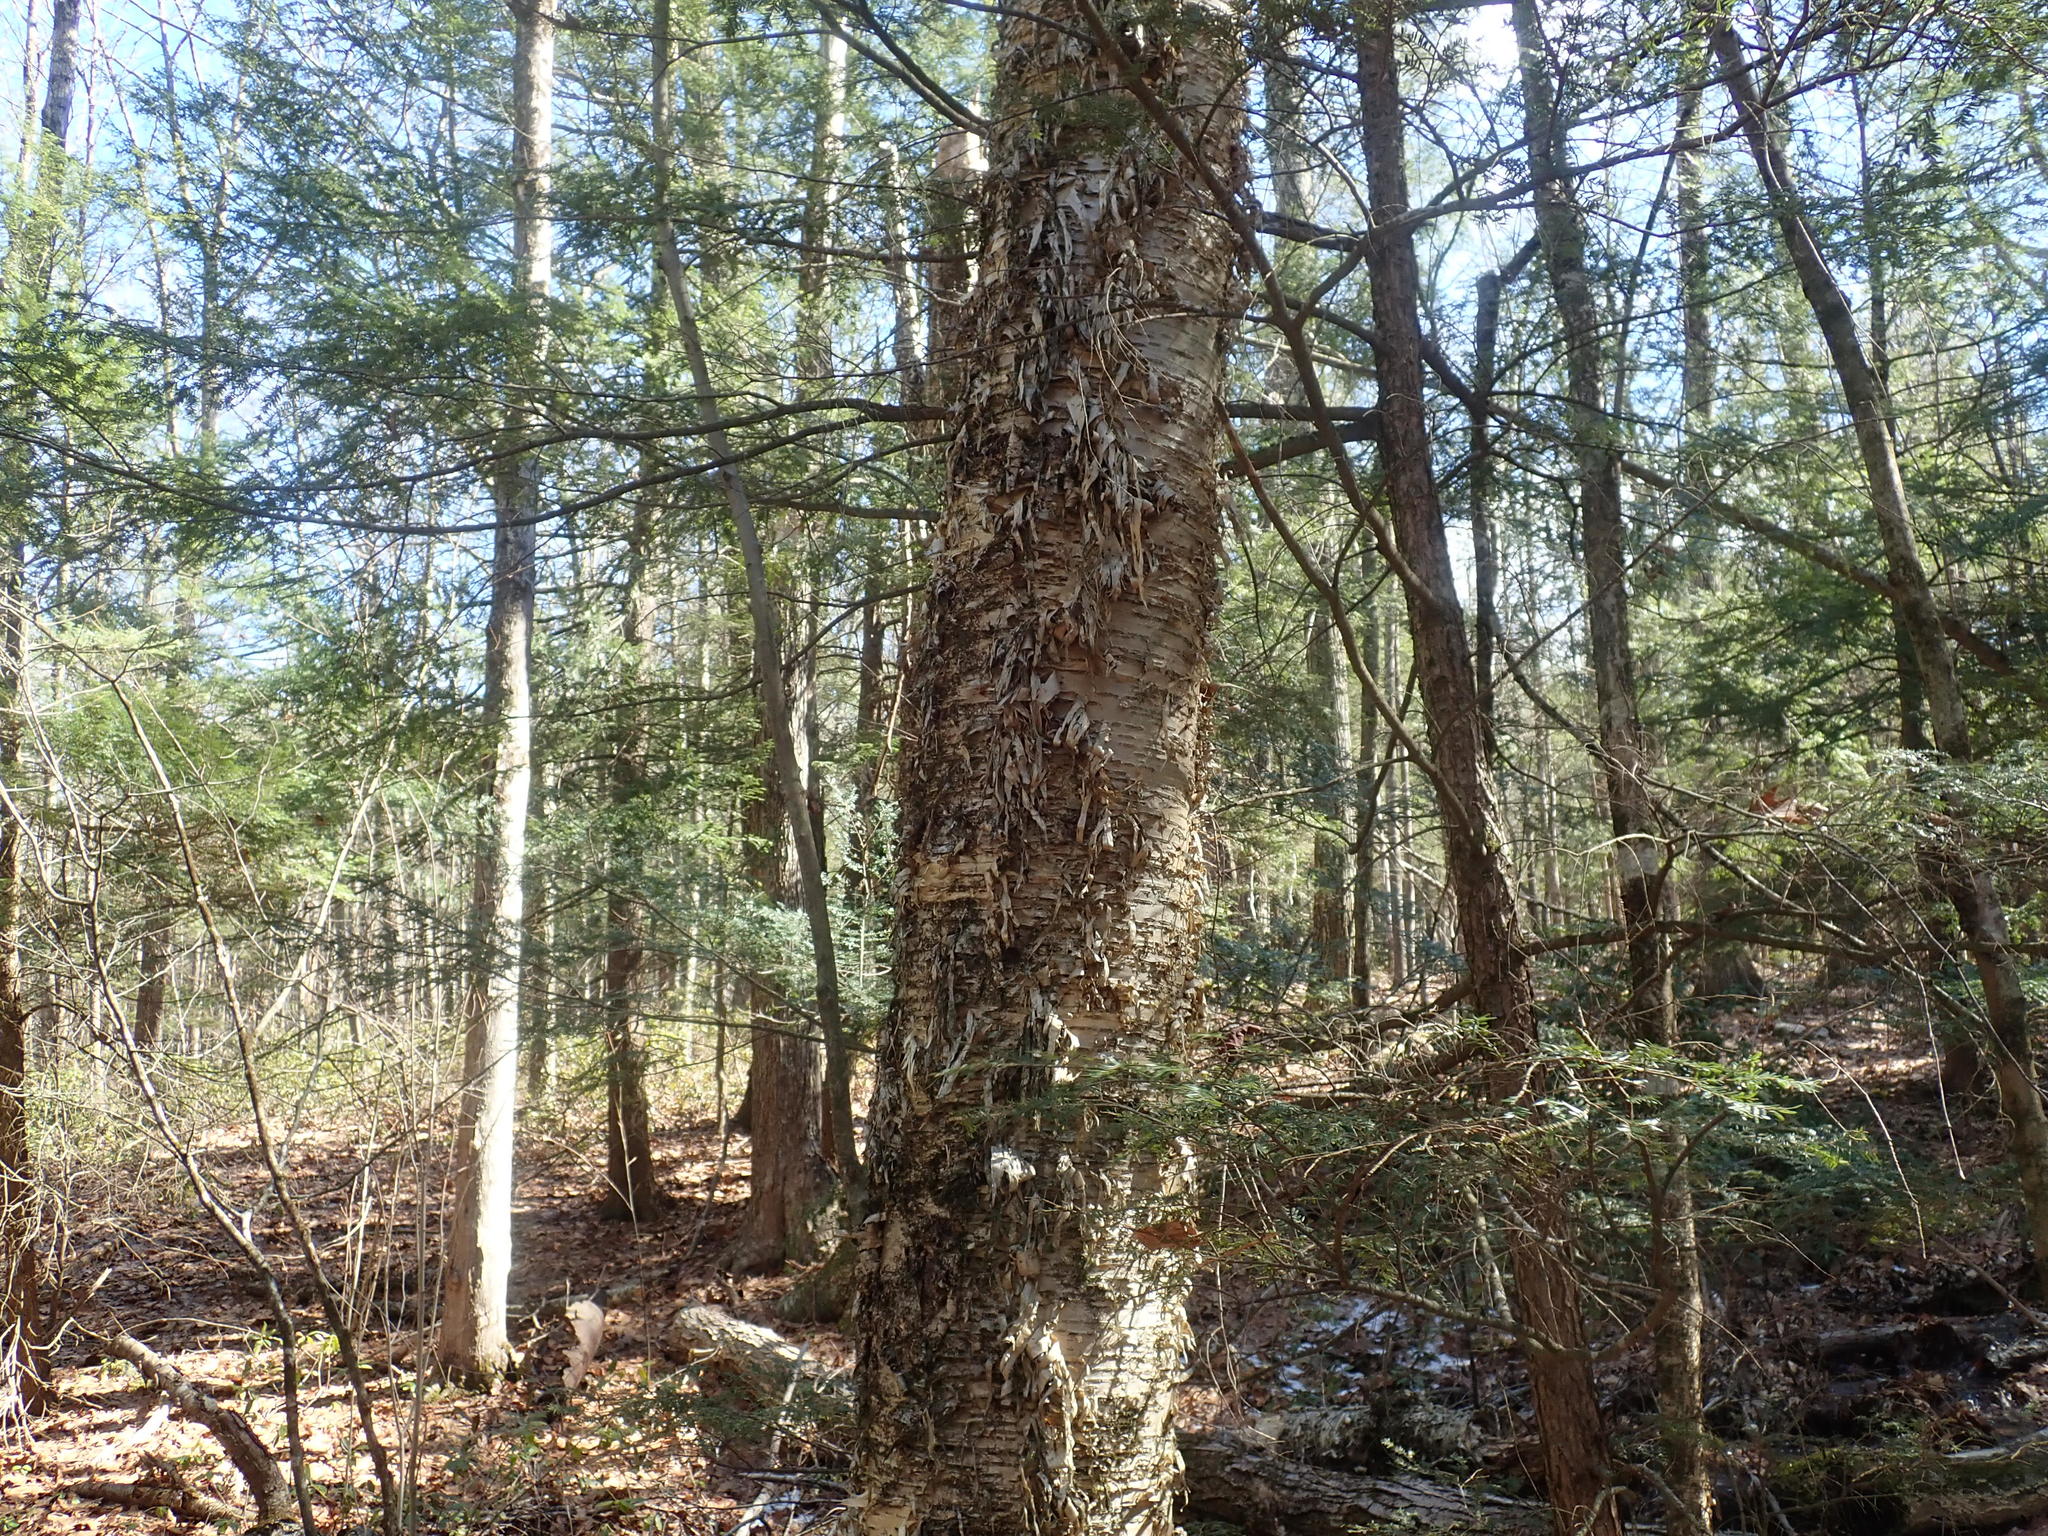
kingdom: Plantae
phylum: Tracheophyta
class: Magnoliopsida
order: Fagales
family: Betulaceae
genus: Betula
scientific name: Betula alleghaniensis
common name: Yellow birch
